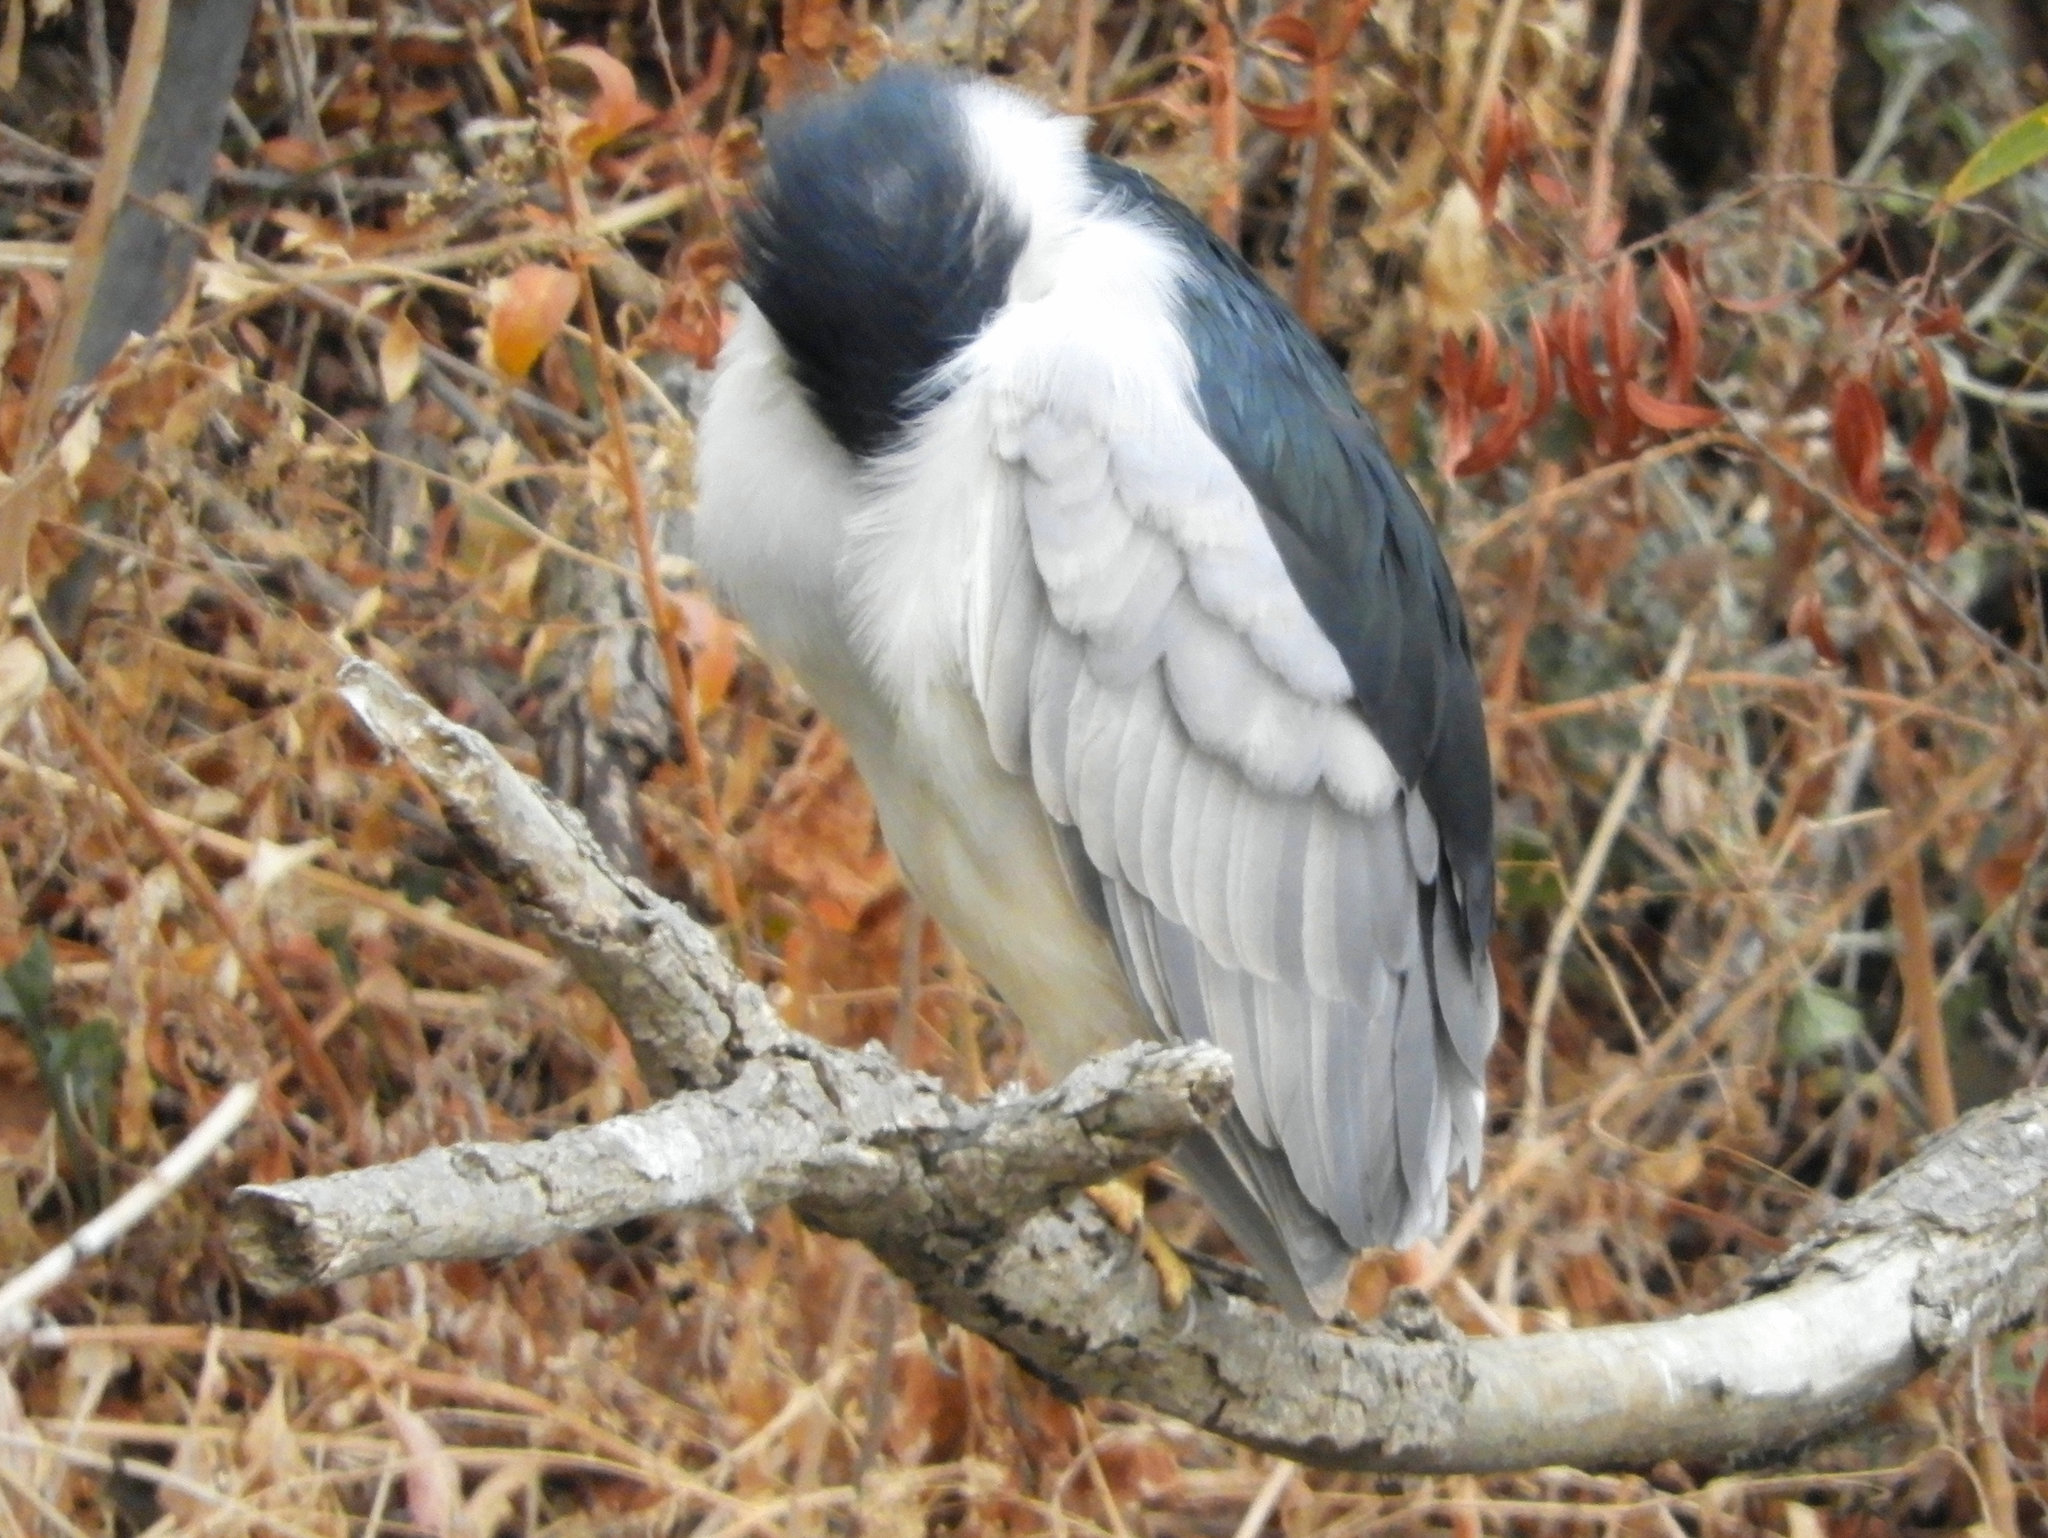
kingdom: Animalia
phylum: Chordata
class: Aves
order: Pelecaniformes
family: Ardeidae
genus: Nycticorax
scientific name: Nycticorax nycticorax
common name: Black-crowned night heron
